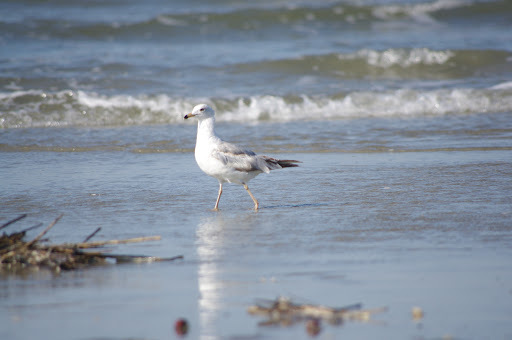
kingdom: Animalia
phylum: Chordata
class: Aves
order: Charadriiformes
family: Laridae
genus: Larus
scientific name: Larus delawarensis
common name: Ring-billed gull
